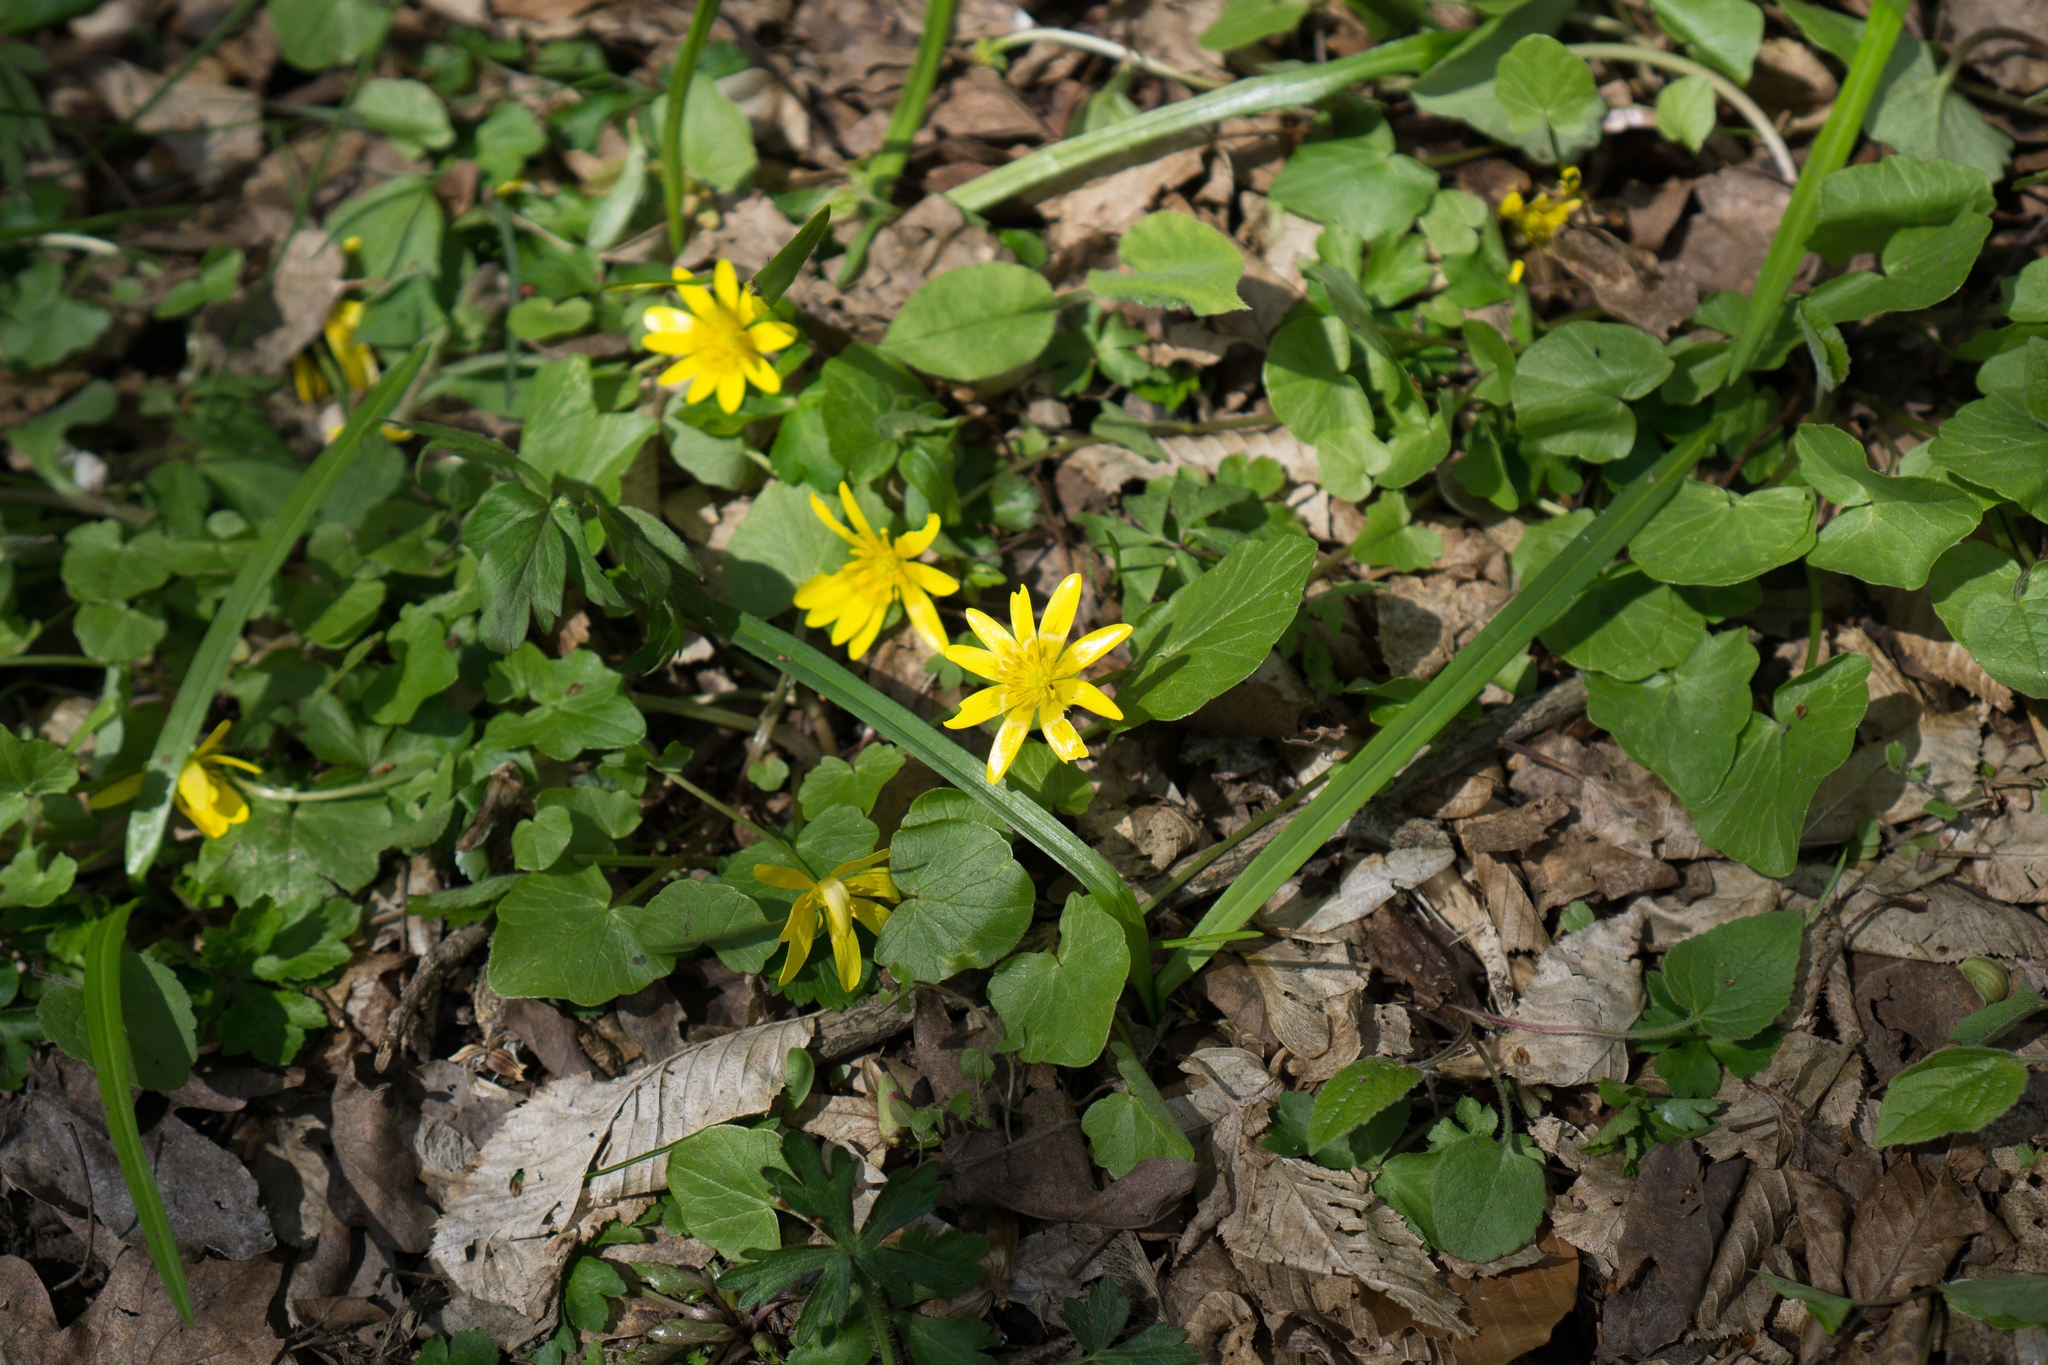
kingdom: Plantae
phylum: Tracheophyta
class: Magnoliopsida
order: Ranunculales
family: Ranunculaceae
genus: Ficaria
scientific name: Ficaria verna
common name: Lesser celandine
